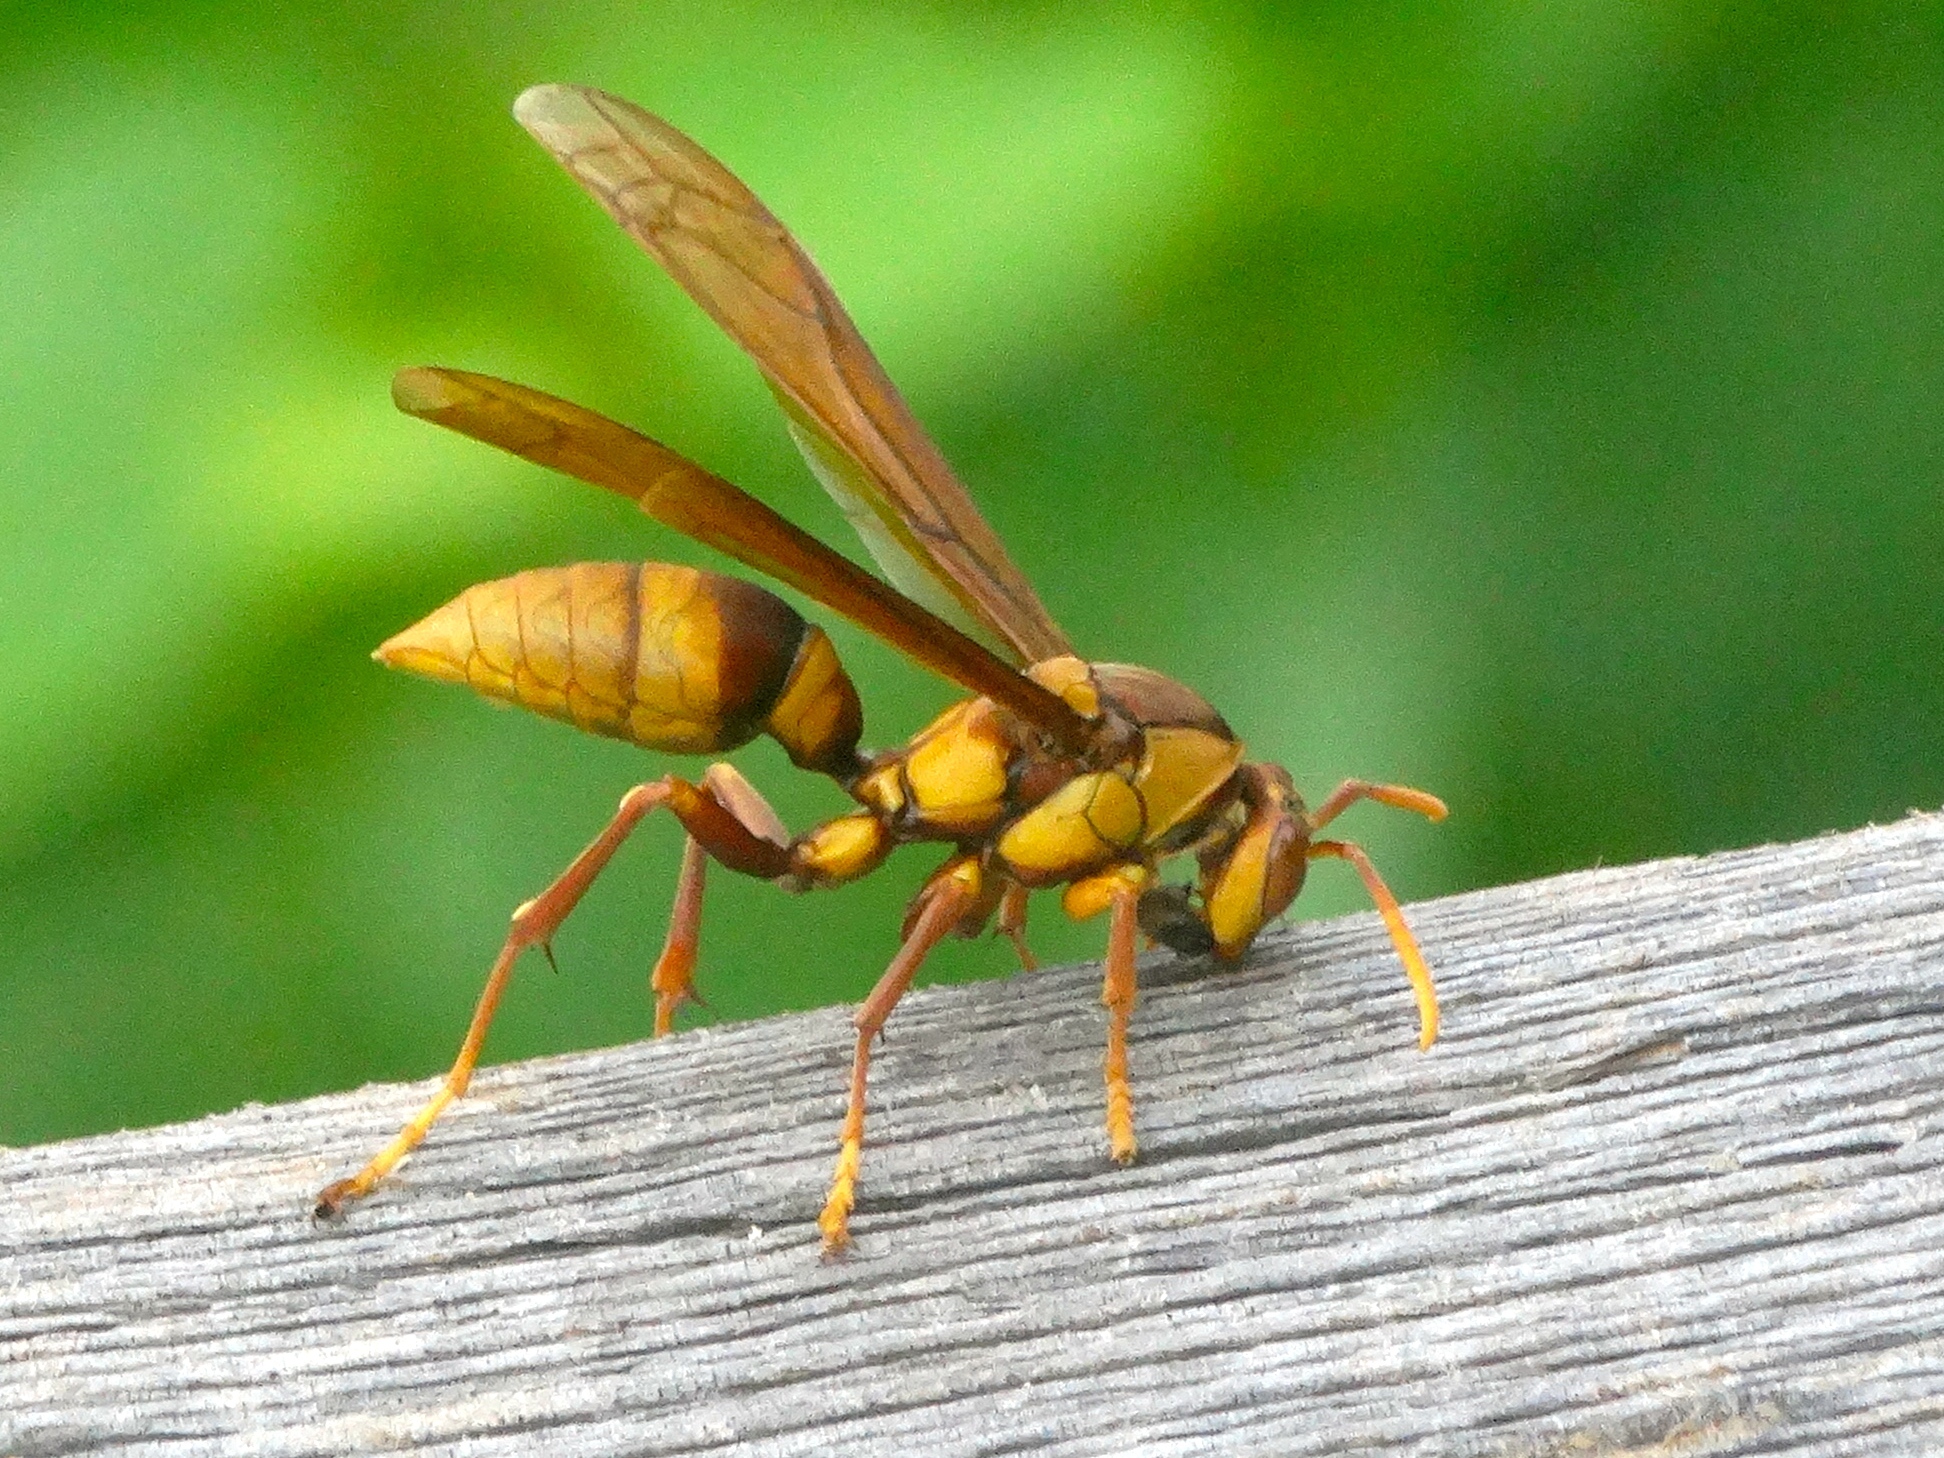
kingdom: Animalia
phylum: Arthropoda
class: Insecta
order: Hymenoptera
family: Eumenidae
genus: Polistes
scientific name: Polistes carnifex
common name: Paper wasp
